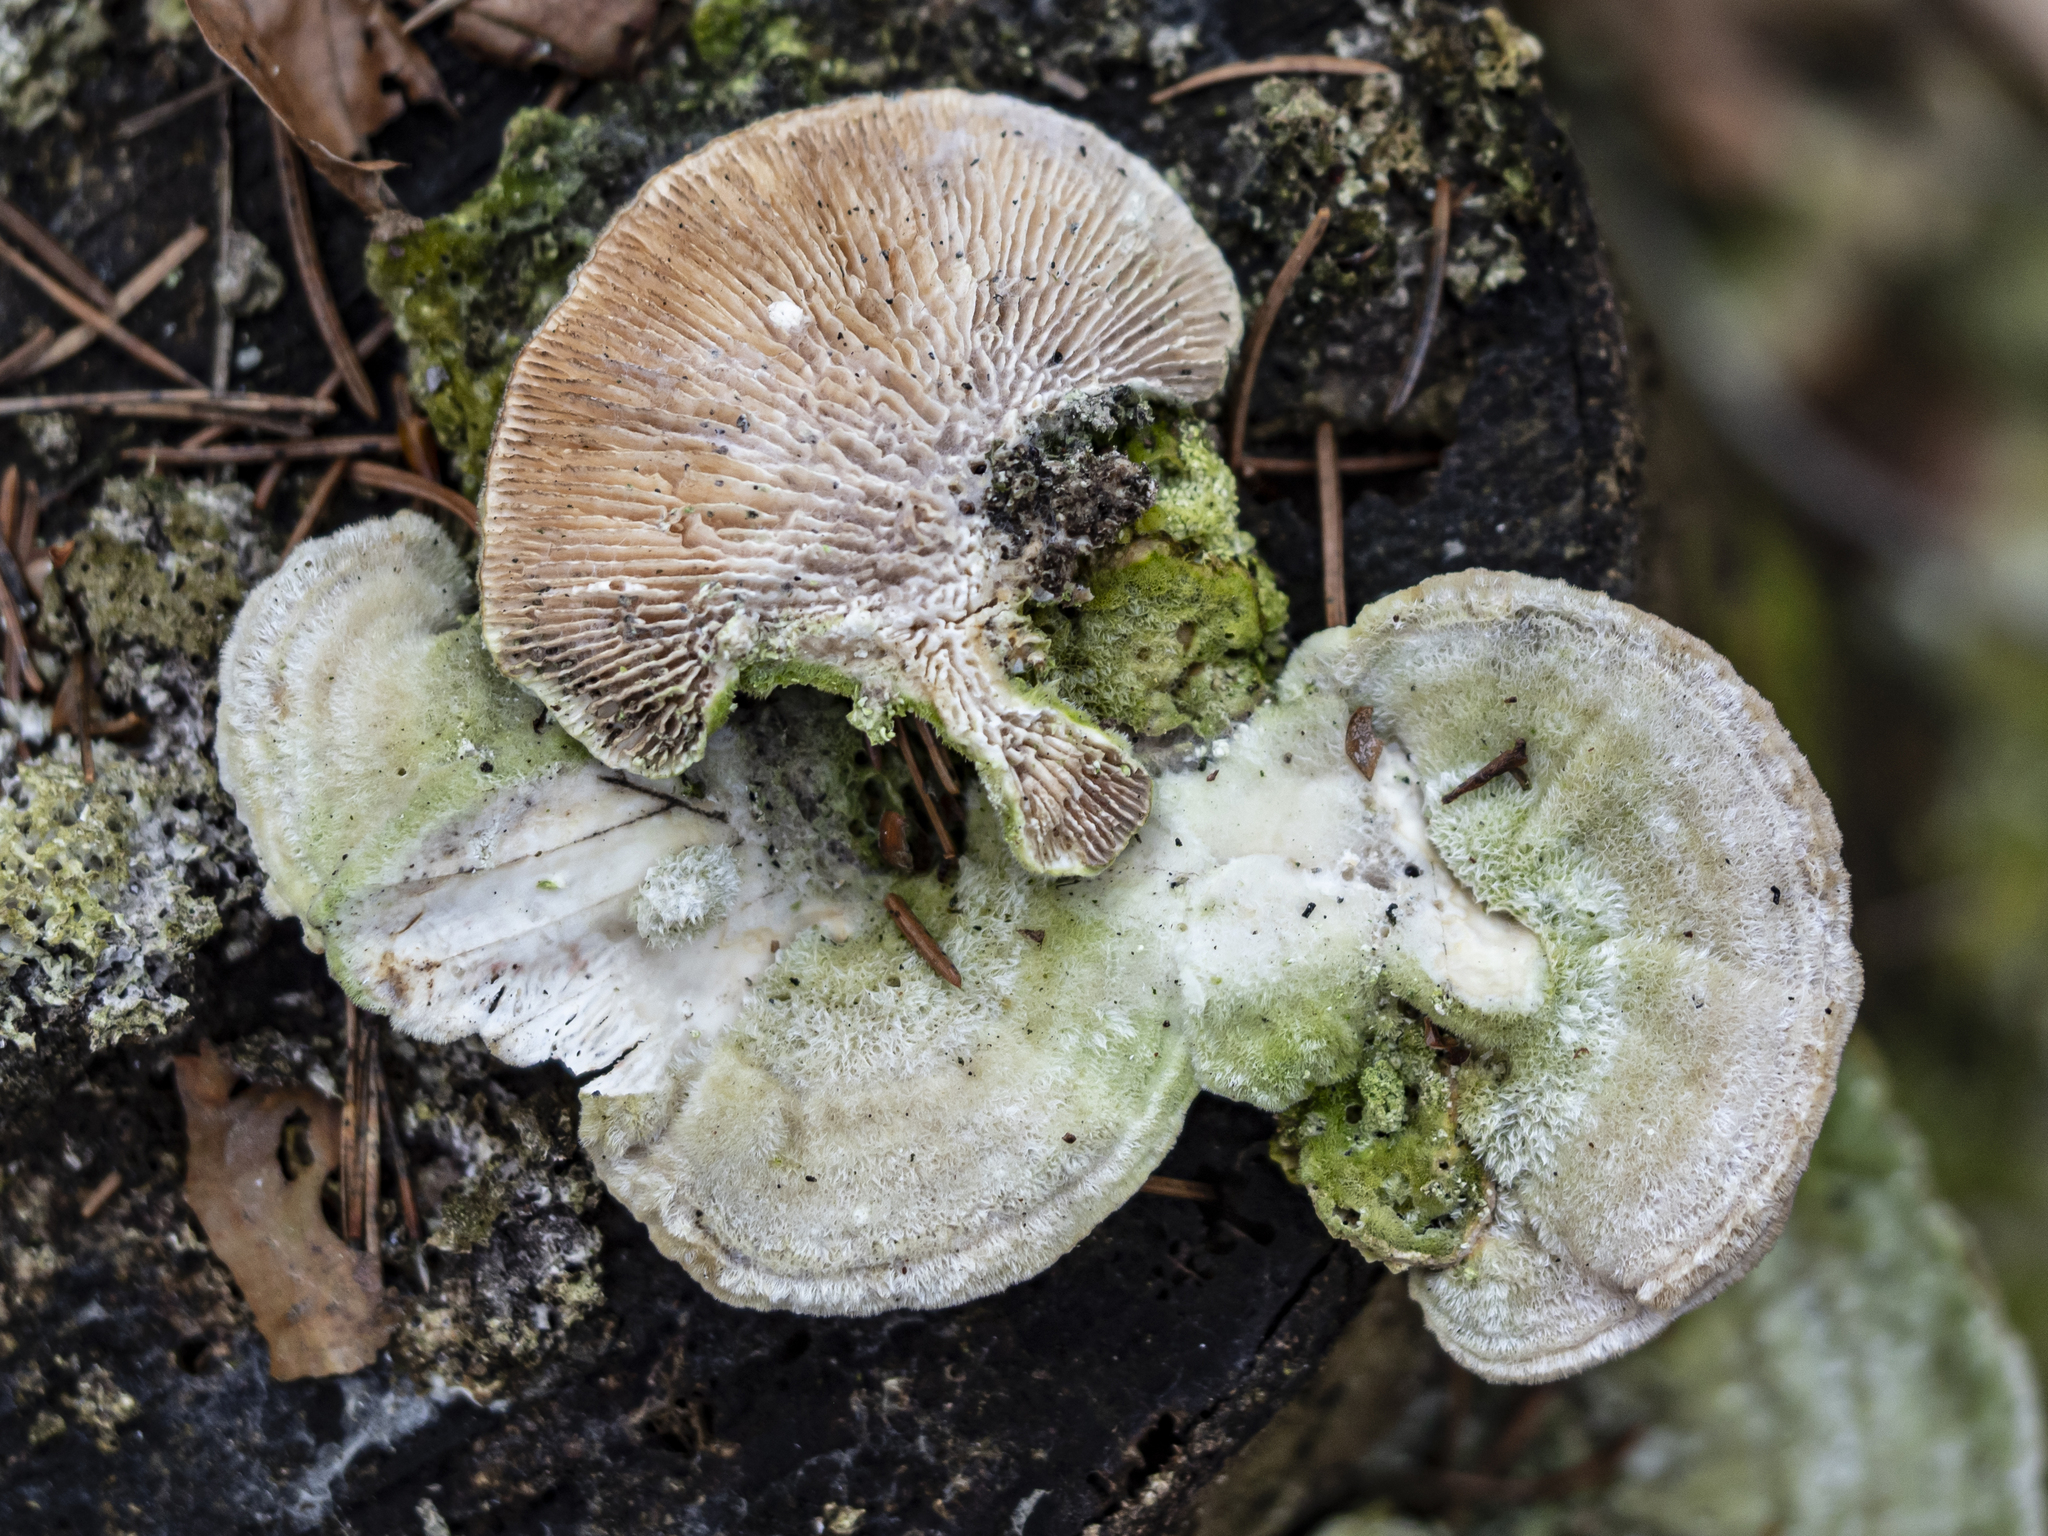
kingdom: Fungi
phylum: Basidiomycota
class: Agaricomycetes
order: Polyporales
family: Polyporaceae
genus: Lenzites
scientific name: Lenzites betulinus
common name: Birch mazegill
